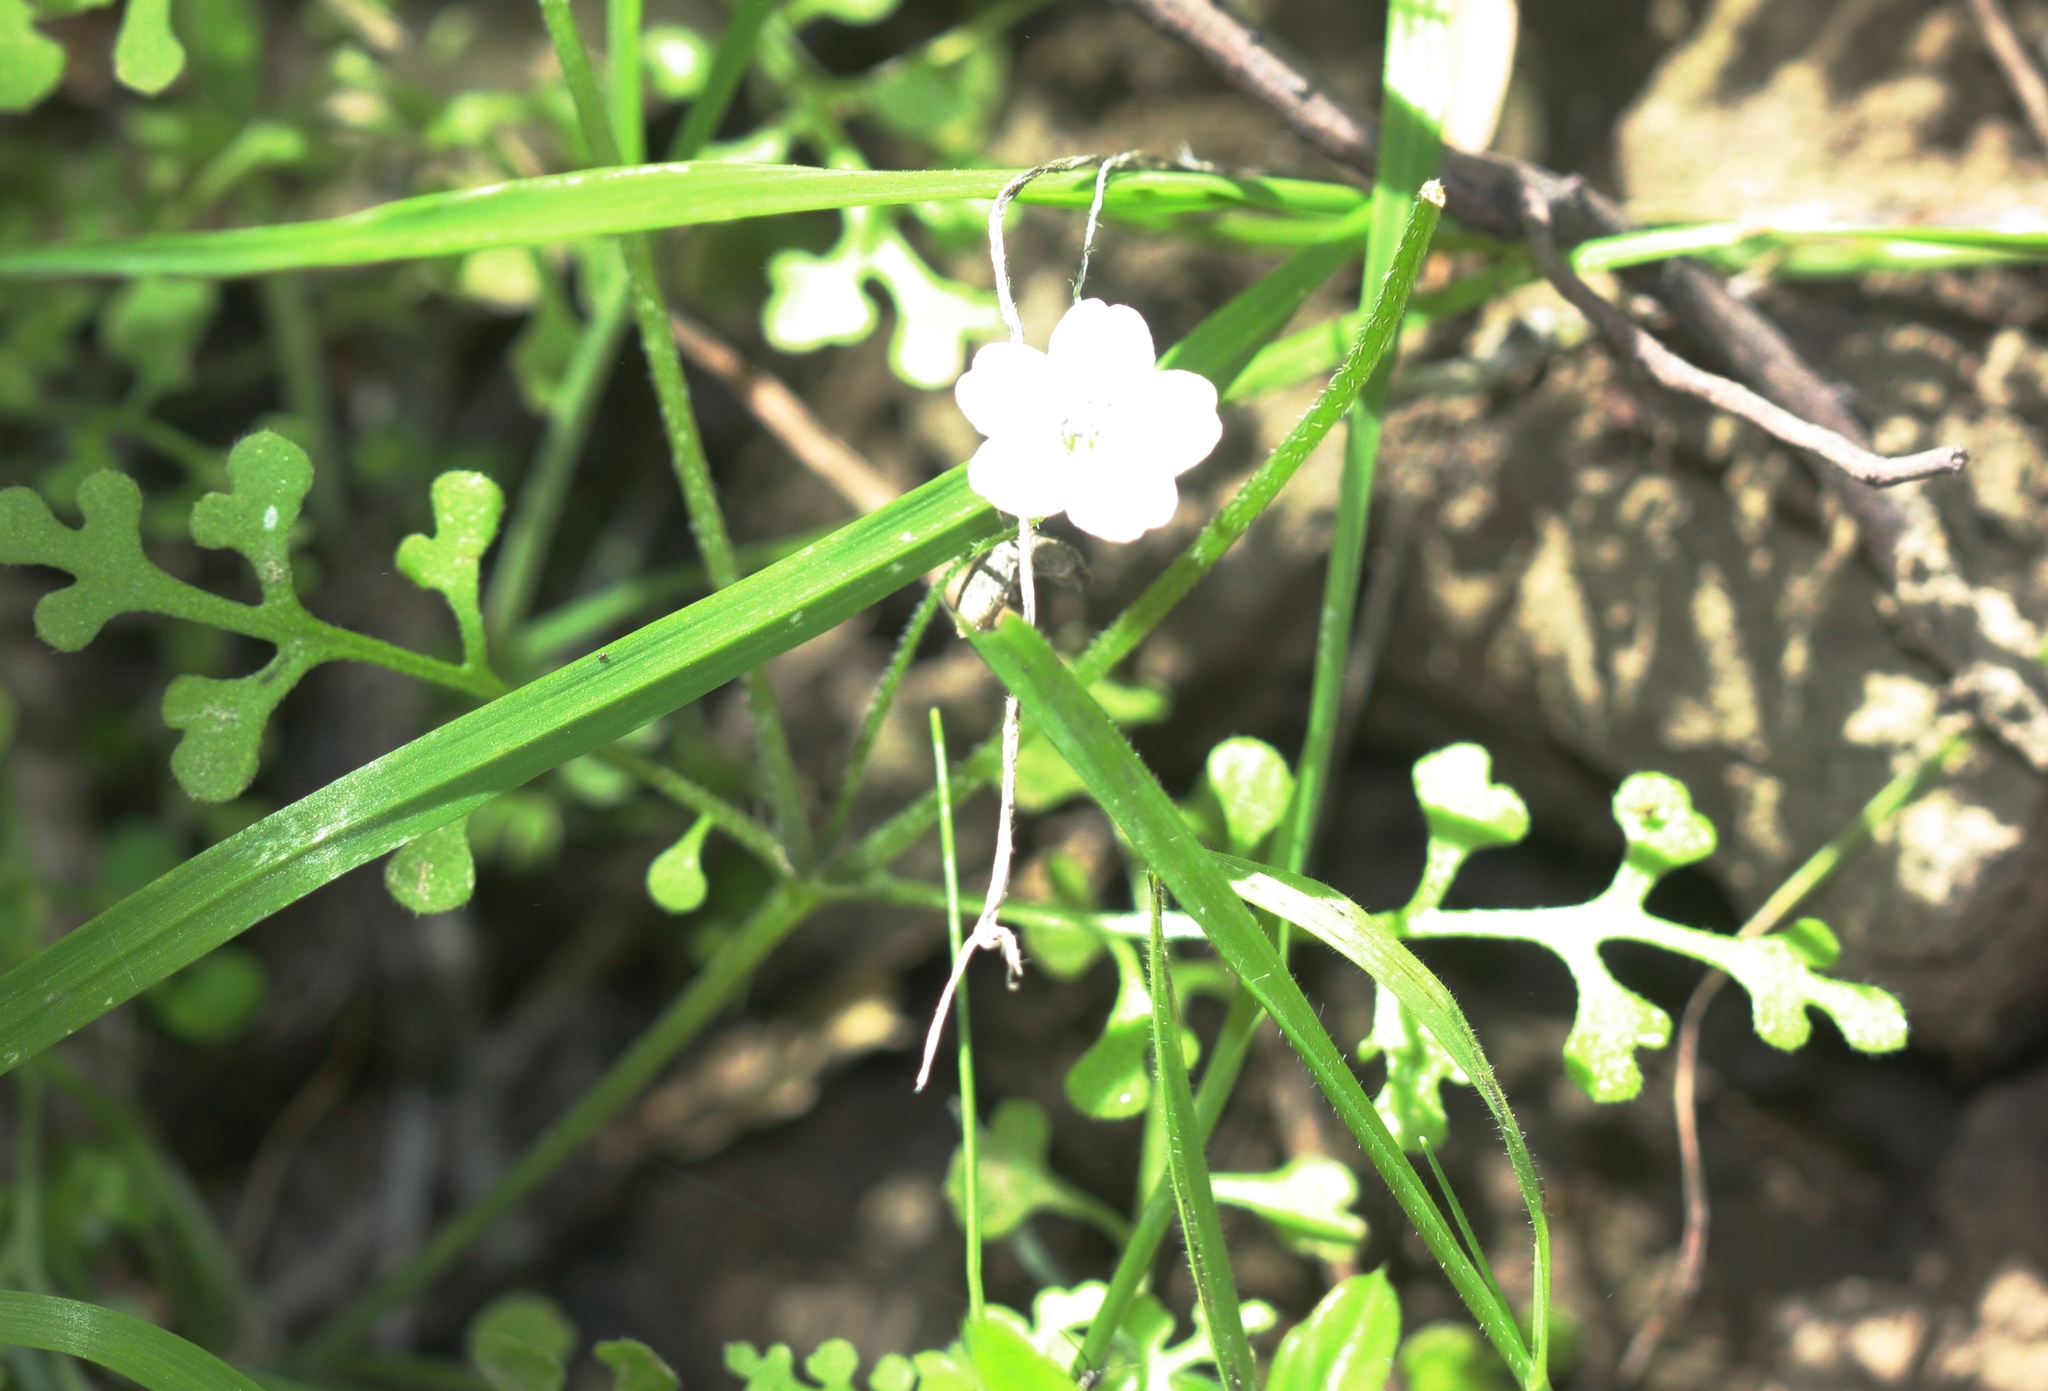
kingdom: Plantae
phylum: Tracheophyta
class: Magnoliopsida
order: Boraginales
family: Hydrophyllaceae
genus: Nemophila
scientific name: Nemophila heterophylla
